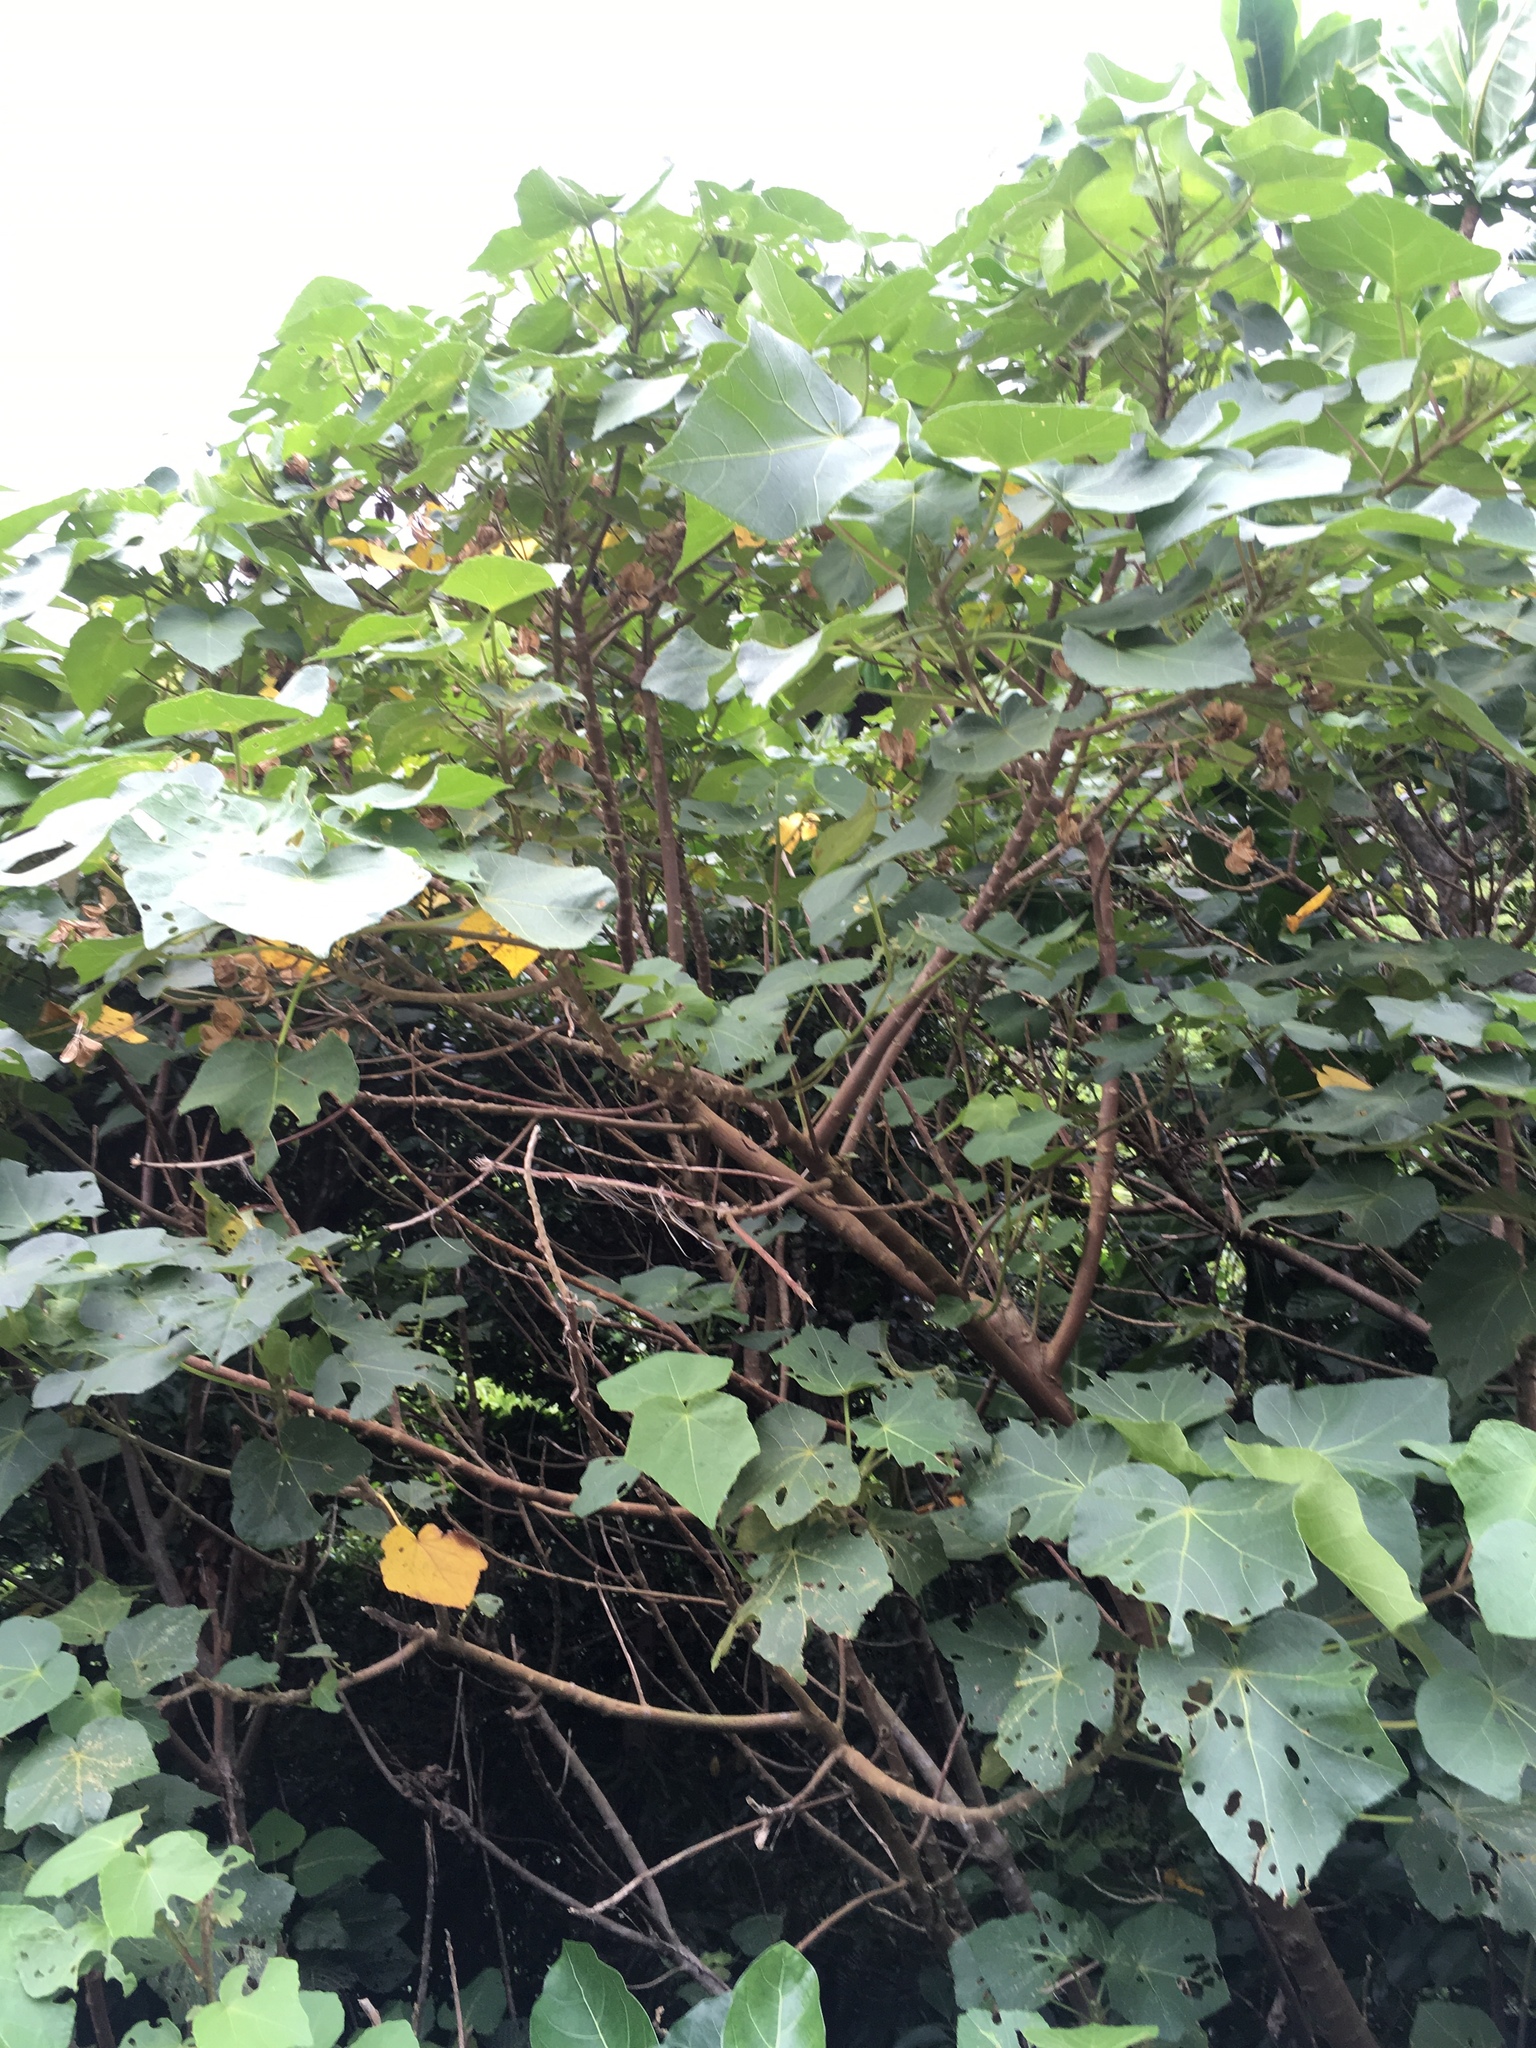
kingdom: Plantae
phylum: Tracheophyta
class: Magnoliopsida
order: Malvales
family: Malvaceae
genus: Hibiscus
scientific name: Hibiscus taiwanensis
